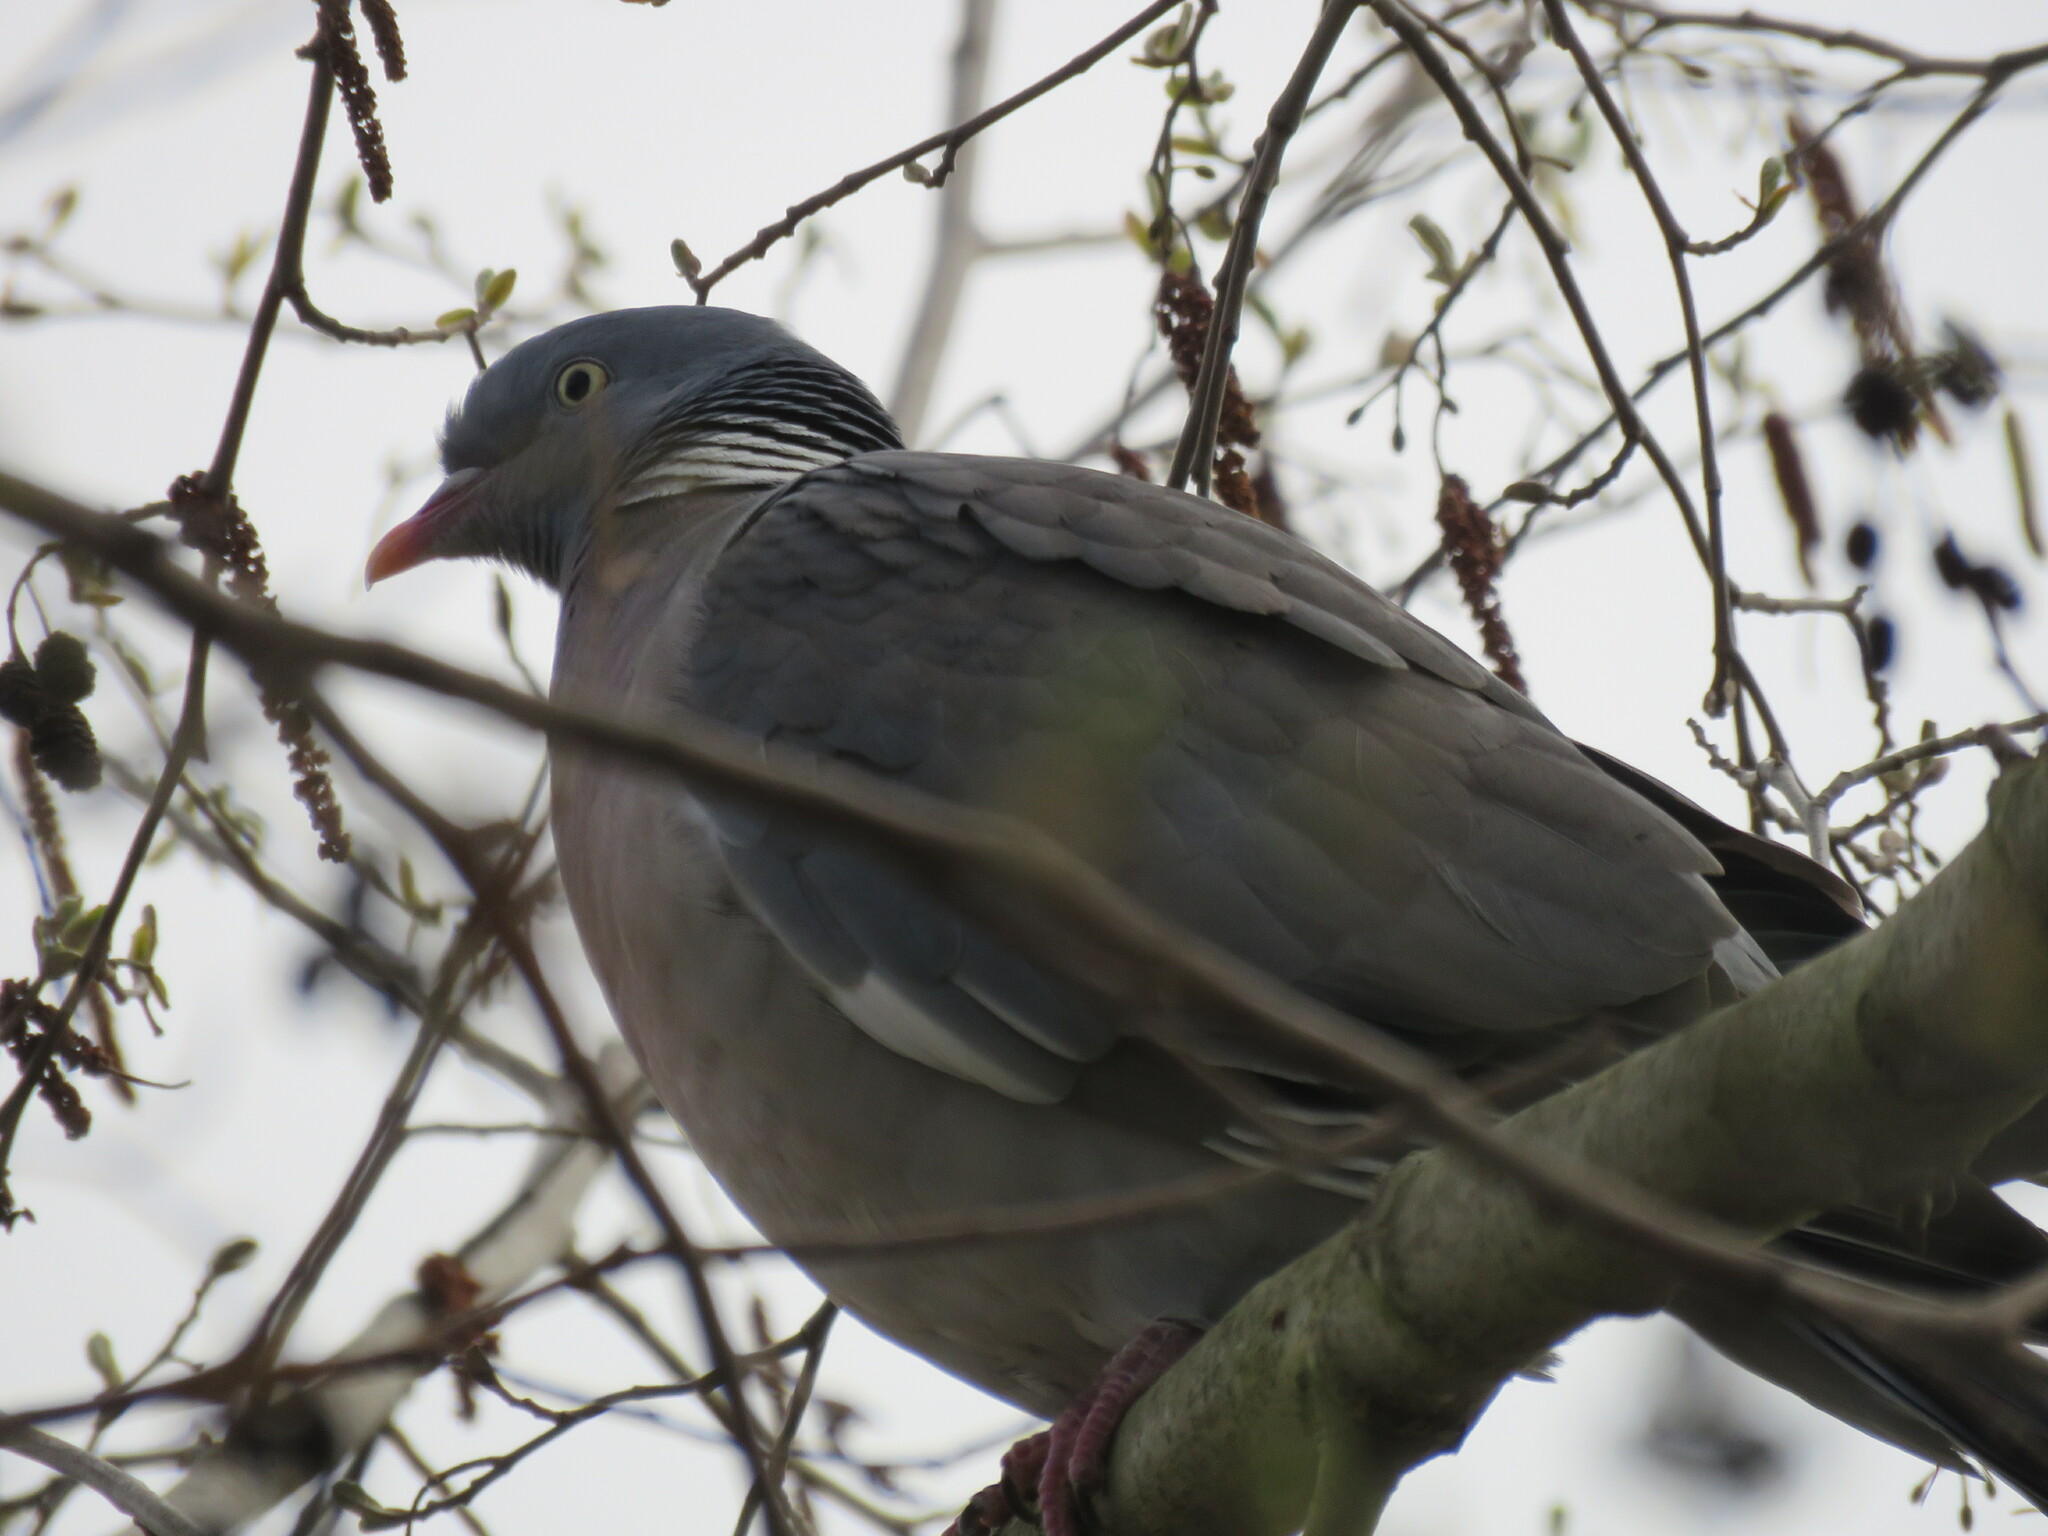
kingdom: Animalia
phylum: Chordata
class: Aves
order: Columbiformes
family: Columbidae
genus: Columba
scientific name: Columba palumbus
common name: Common wood pigeon
